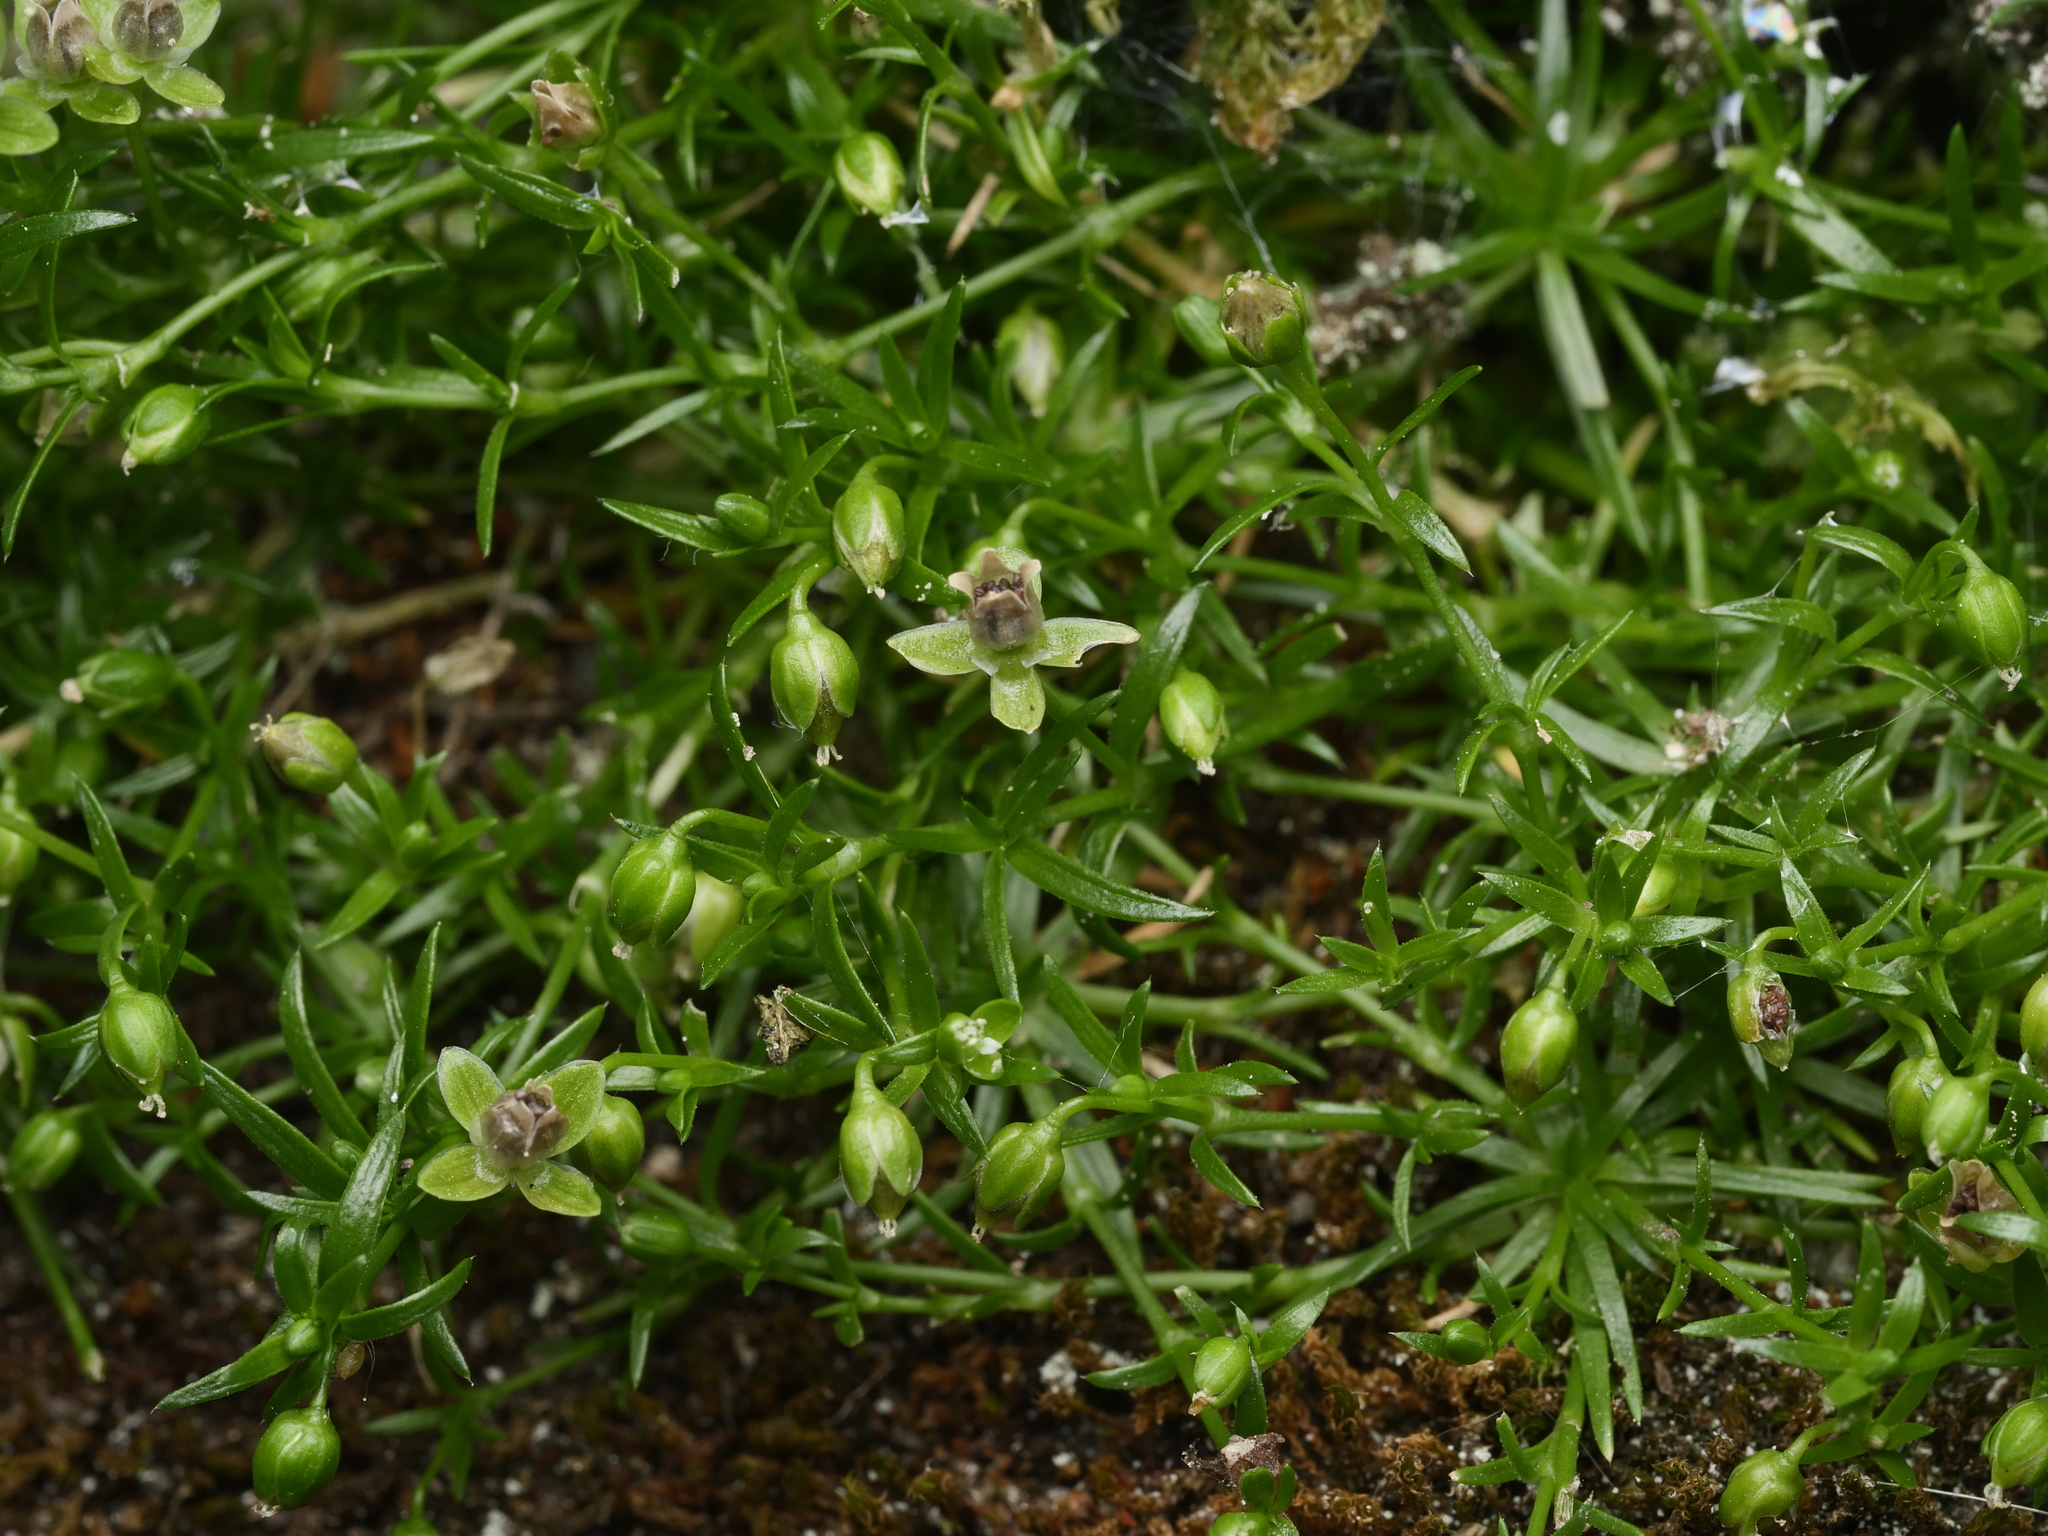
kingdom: Plantae
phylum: Tracheophyta
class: Magnoliopsida
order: Caryophyllales
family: Caryophyllaceae
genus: Sagina
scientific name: Sagina procumbens
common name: Procumbent pearlwort
